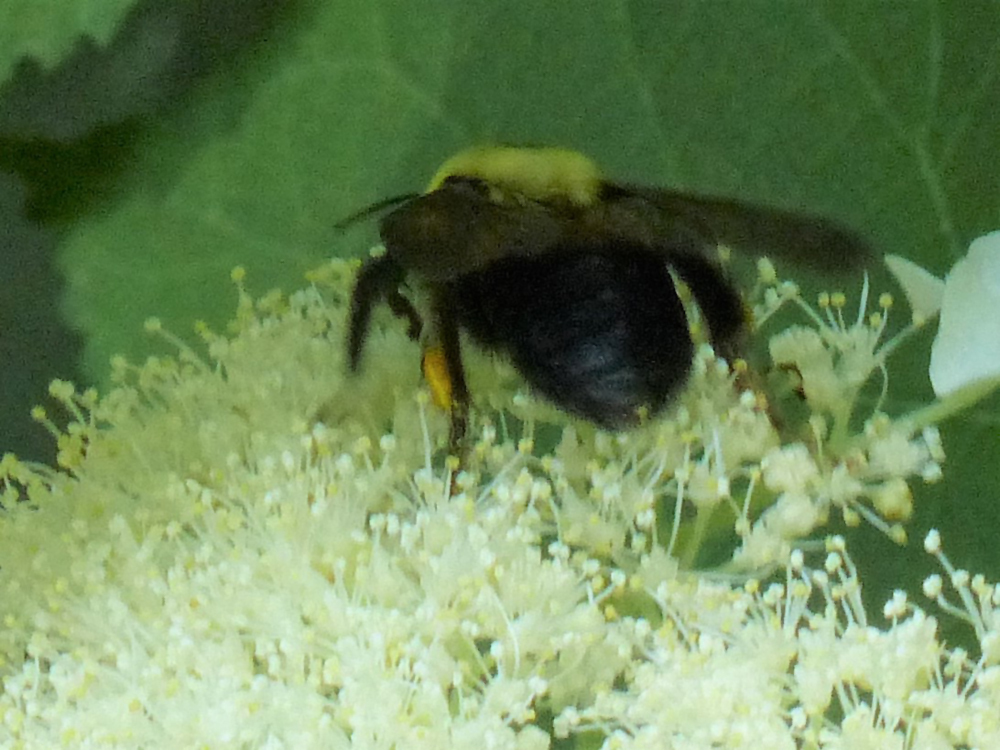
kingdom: Animalia
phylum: Arthropoda
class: Insecta
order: Hymenoptera
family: Apidae
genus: Bombus
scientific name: Bombus griseocollis
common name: Brown-belted bumble bee
